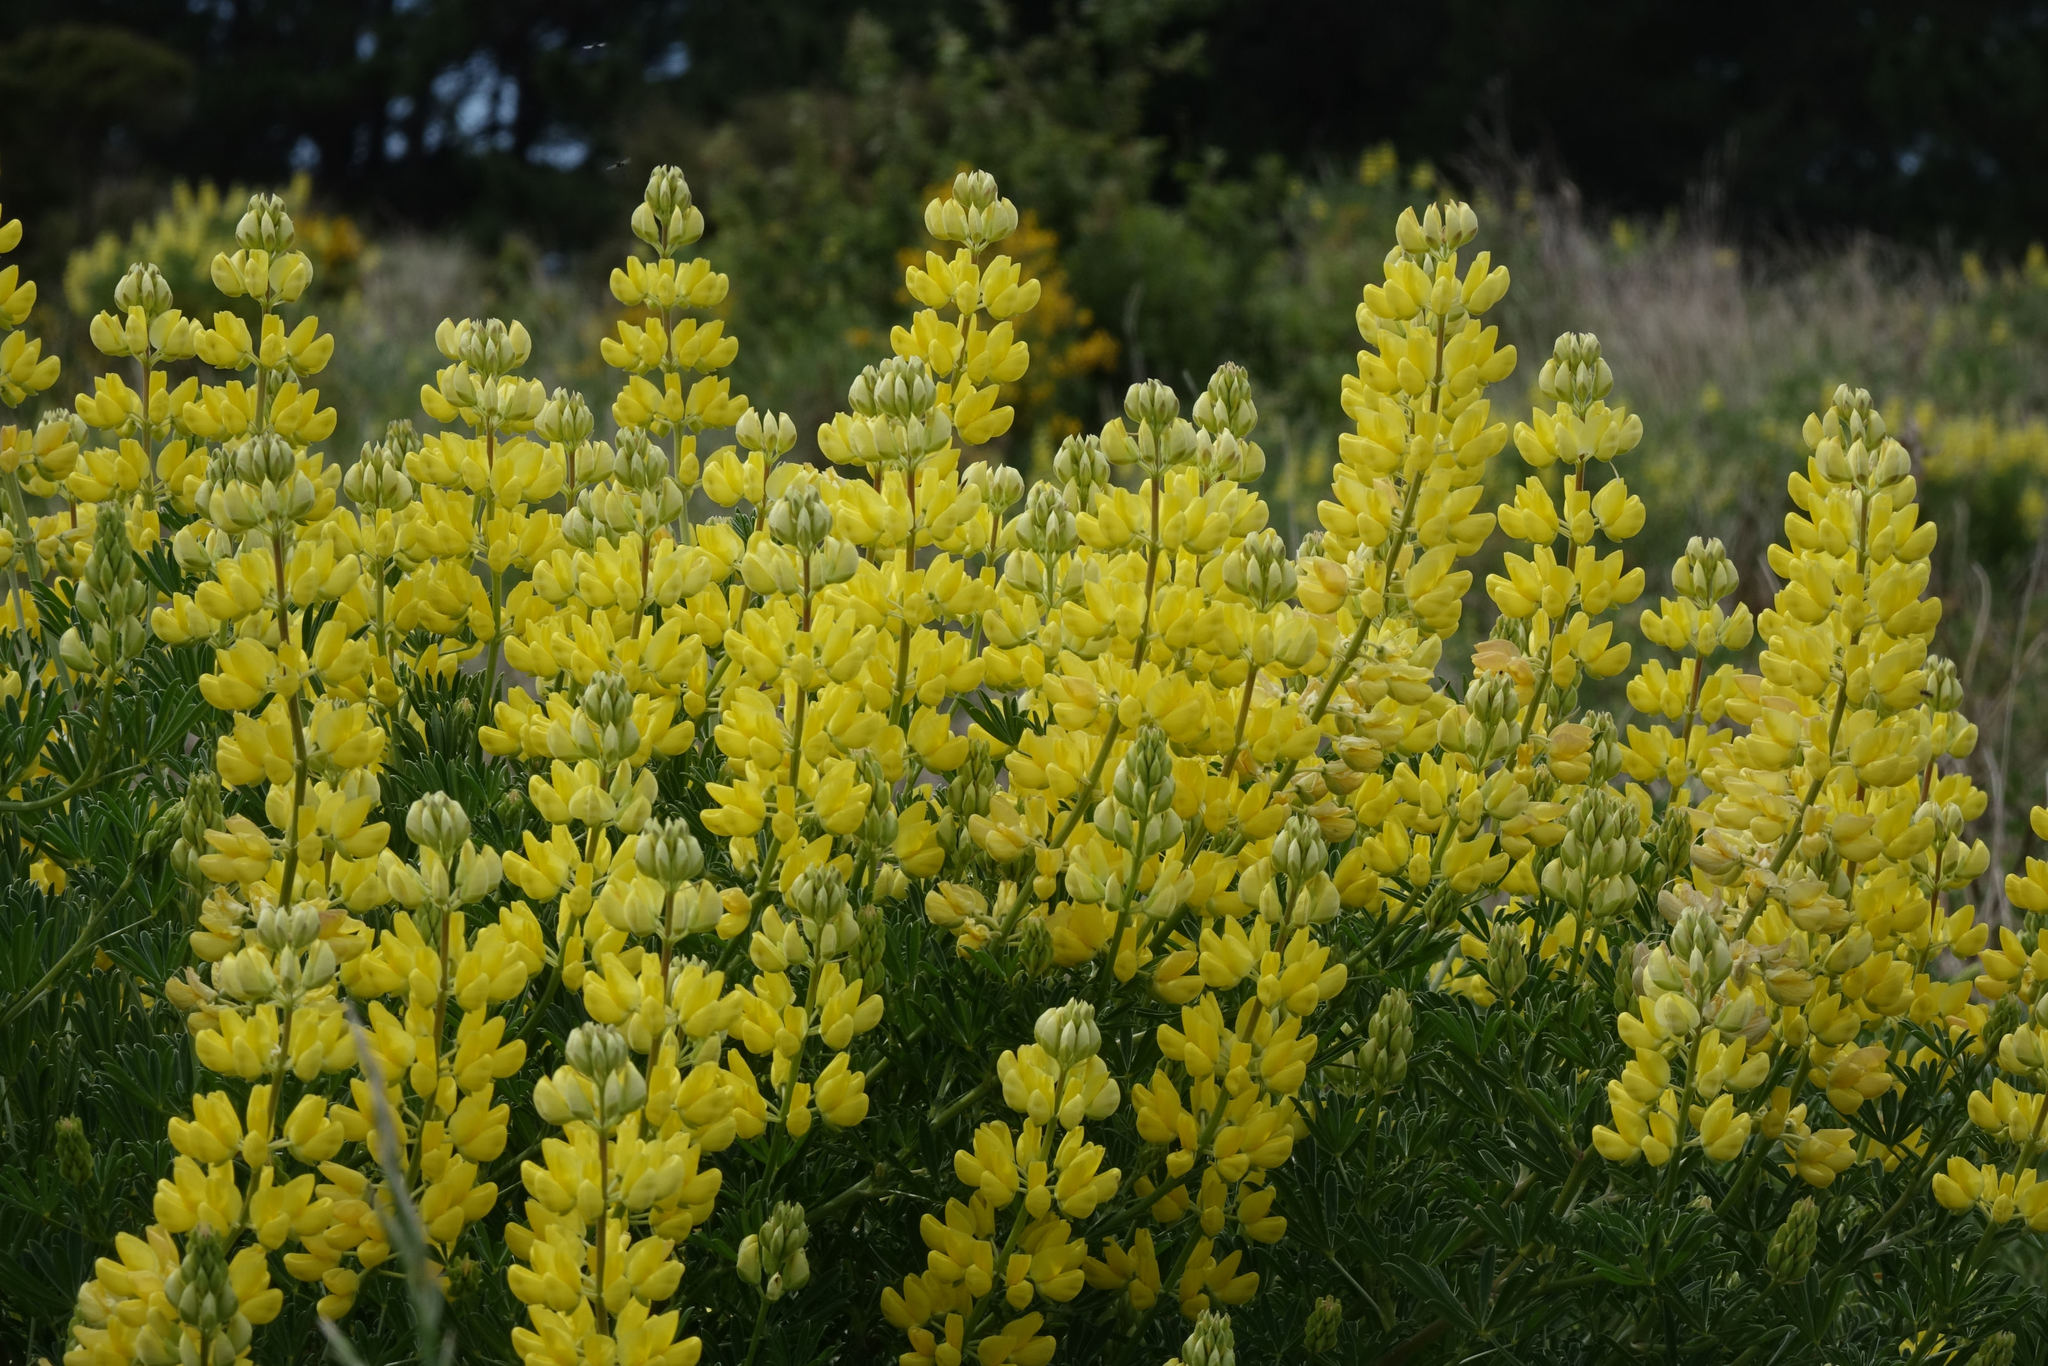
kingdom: Plantae
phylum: Tracheophyta
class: Magnoliopsida
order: Fabales
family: Fabaceae
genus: Lupinus
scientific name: Lupinus arboreus
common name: Yellow bush lupine
